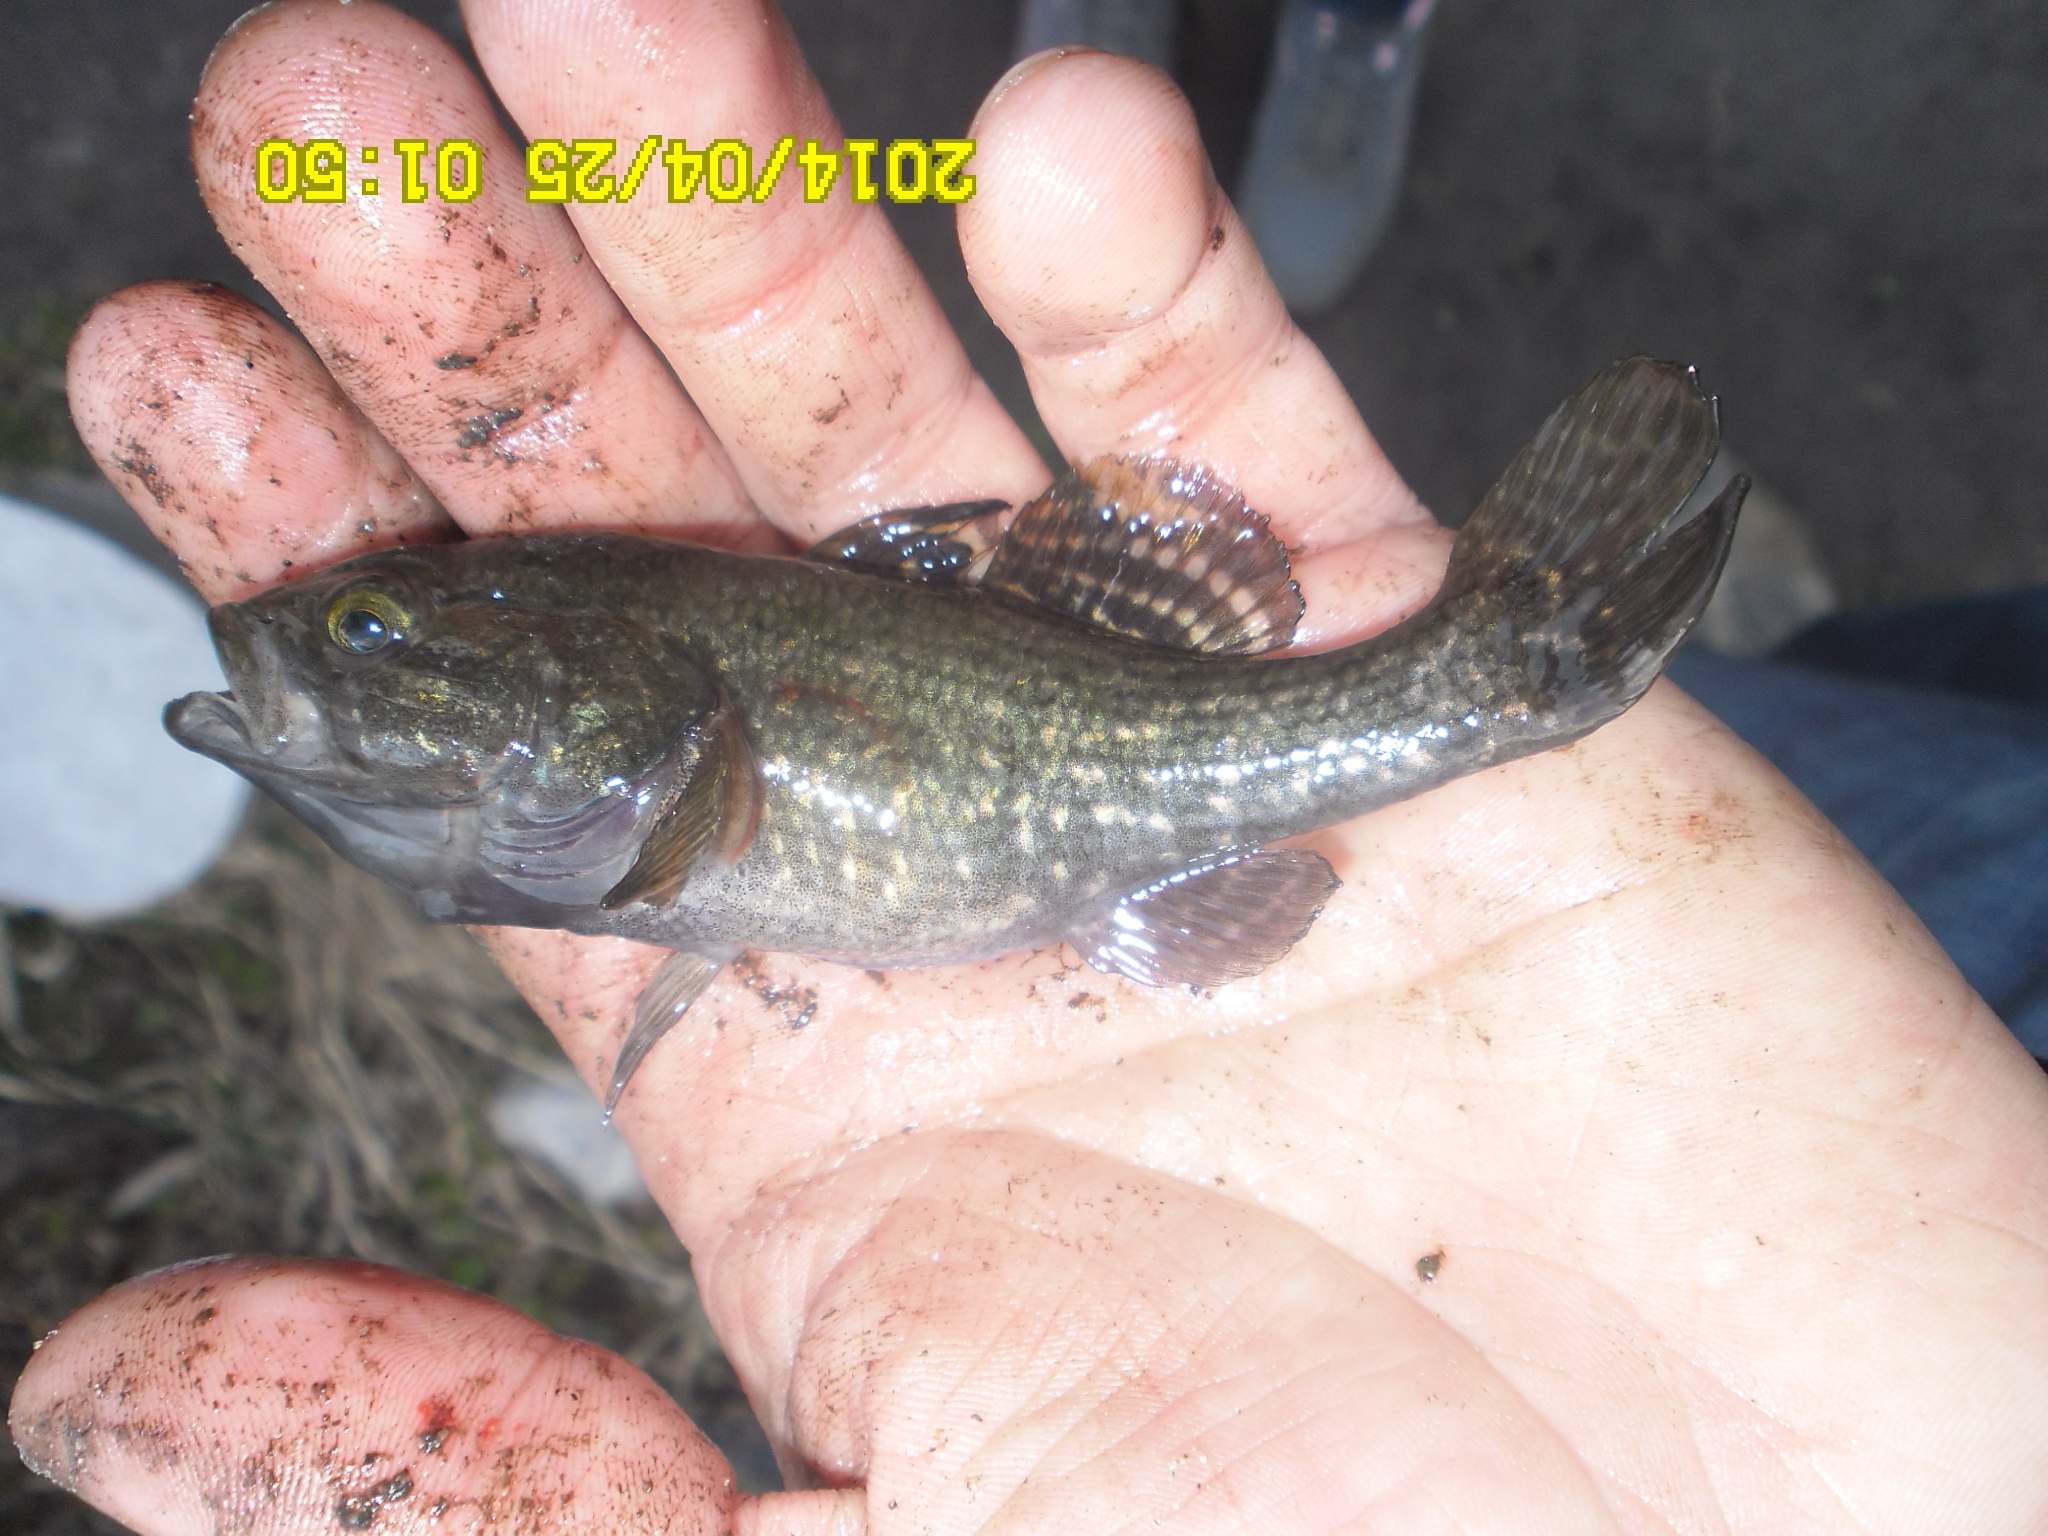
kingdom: Animalia
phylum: Chordata
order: Perciformes
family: Odontobutidae
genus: Perccottus
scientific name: Perccottus glenii
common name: Amur sleeper
